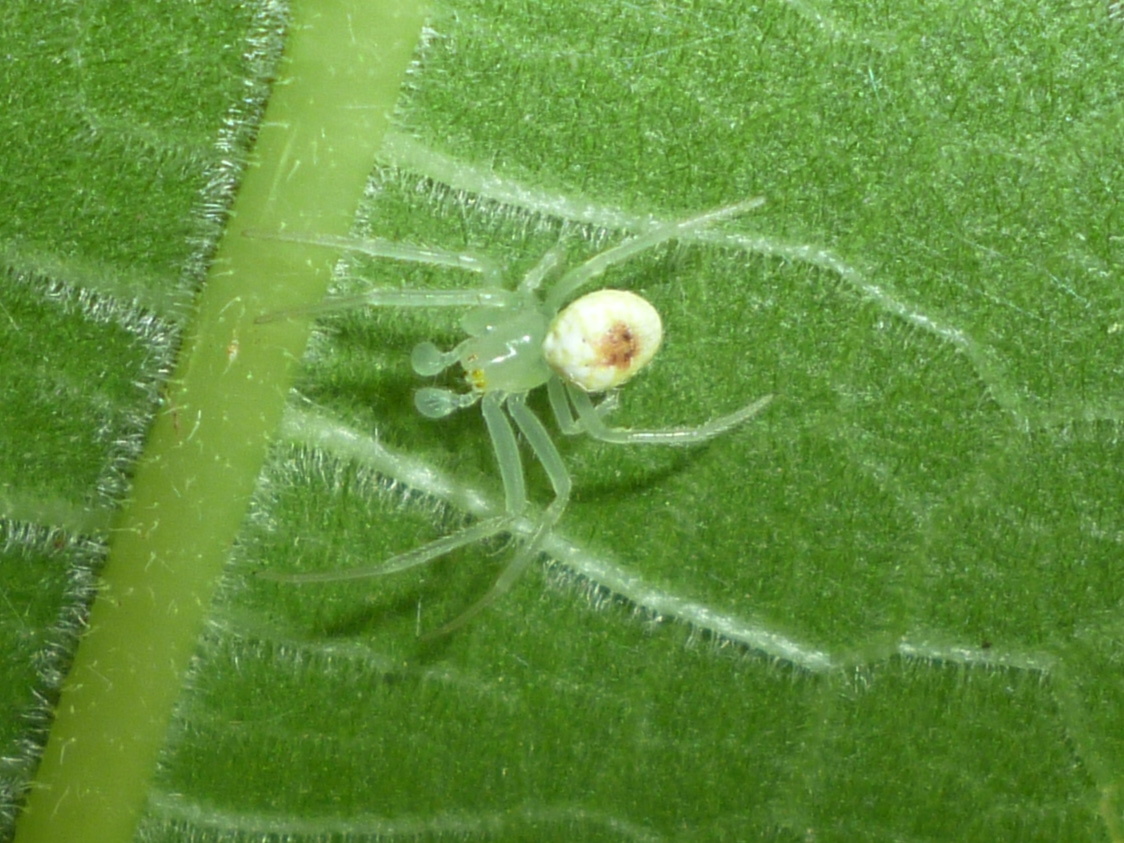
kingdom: Animalia
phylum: Arthropoda
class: Arachnida
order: Araneae
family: Araneidae
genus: Araneus
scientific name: Araneus niveus
